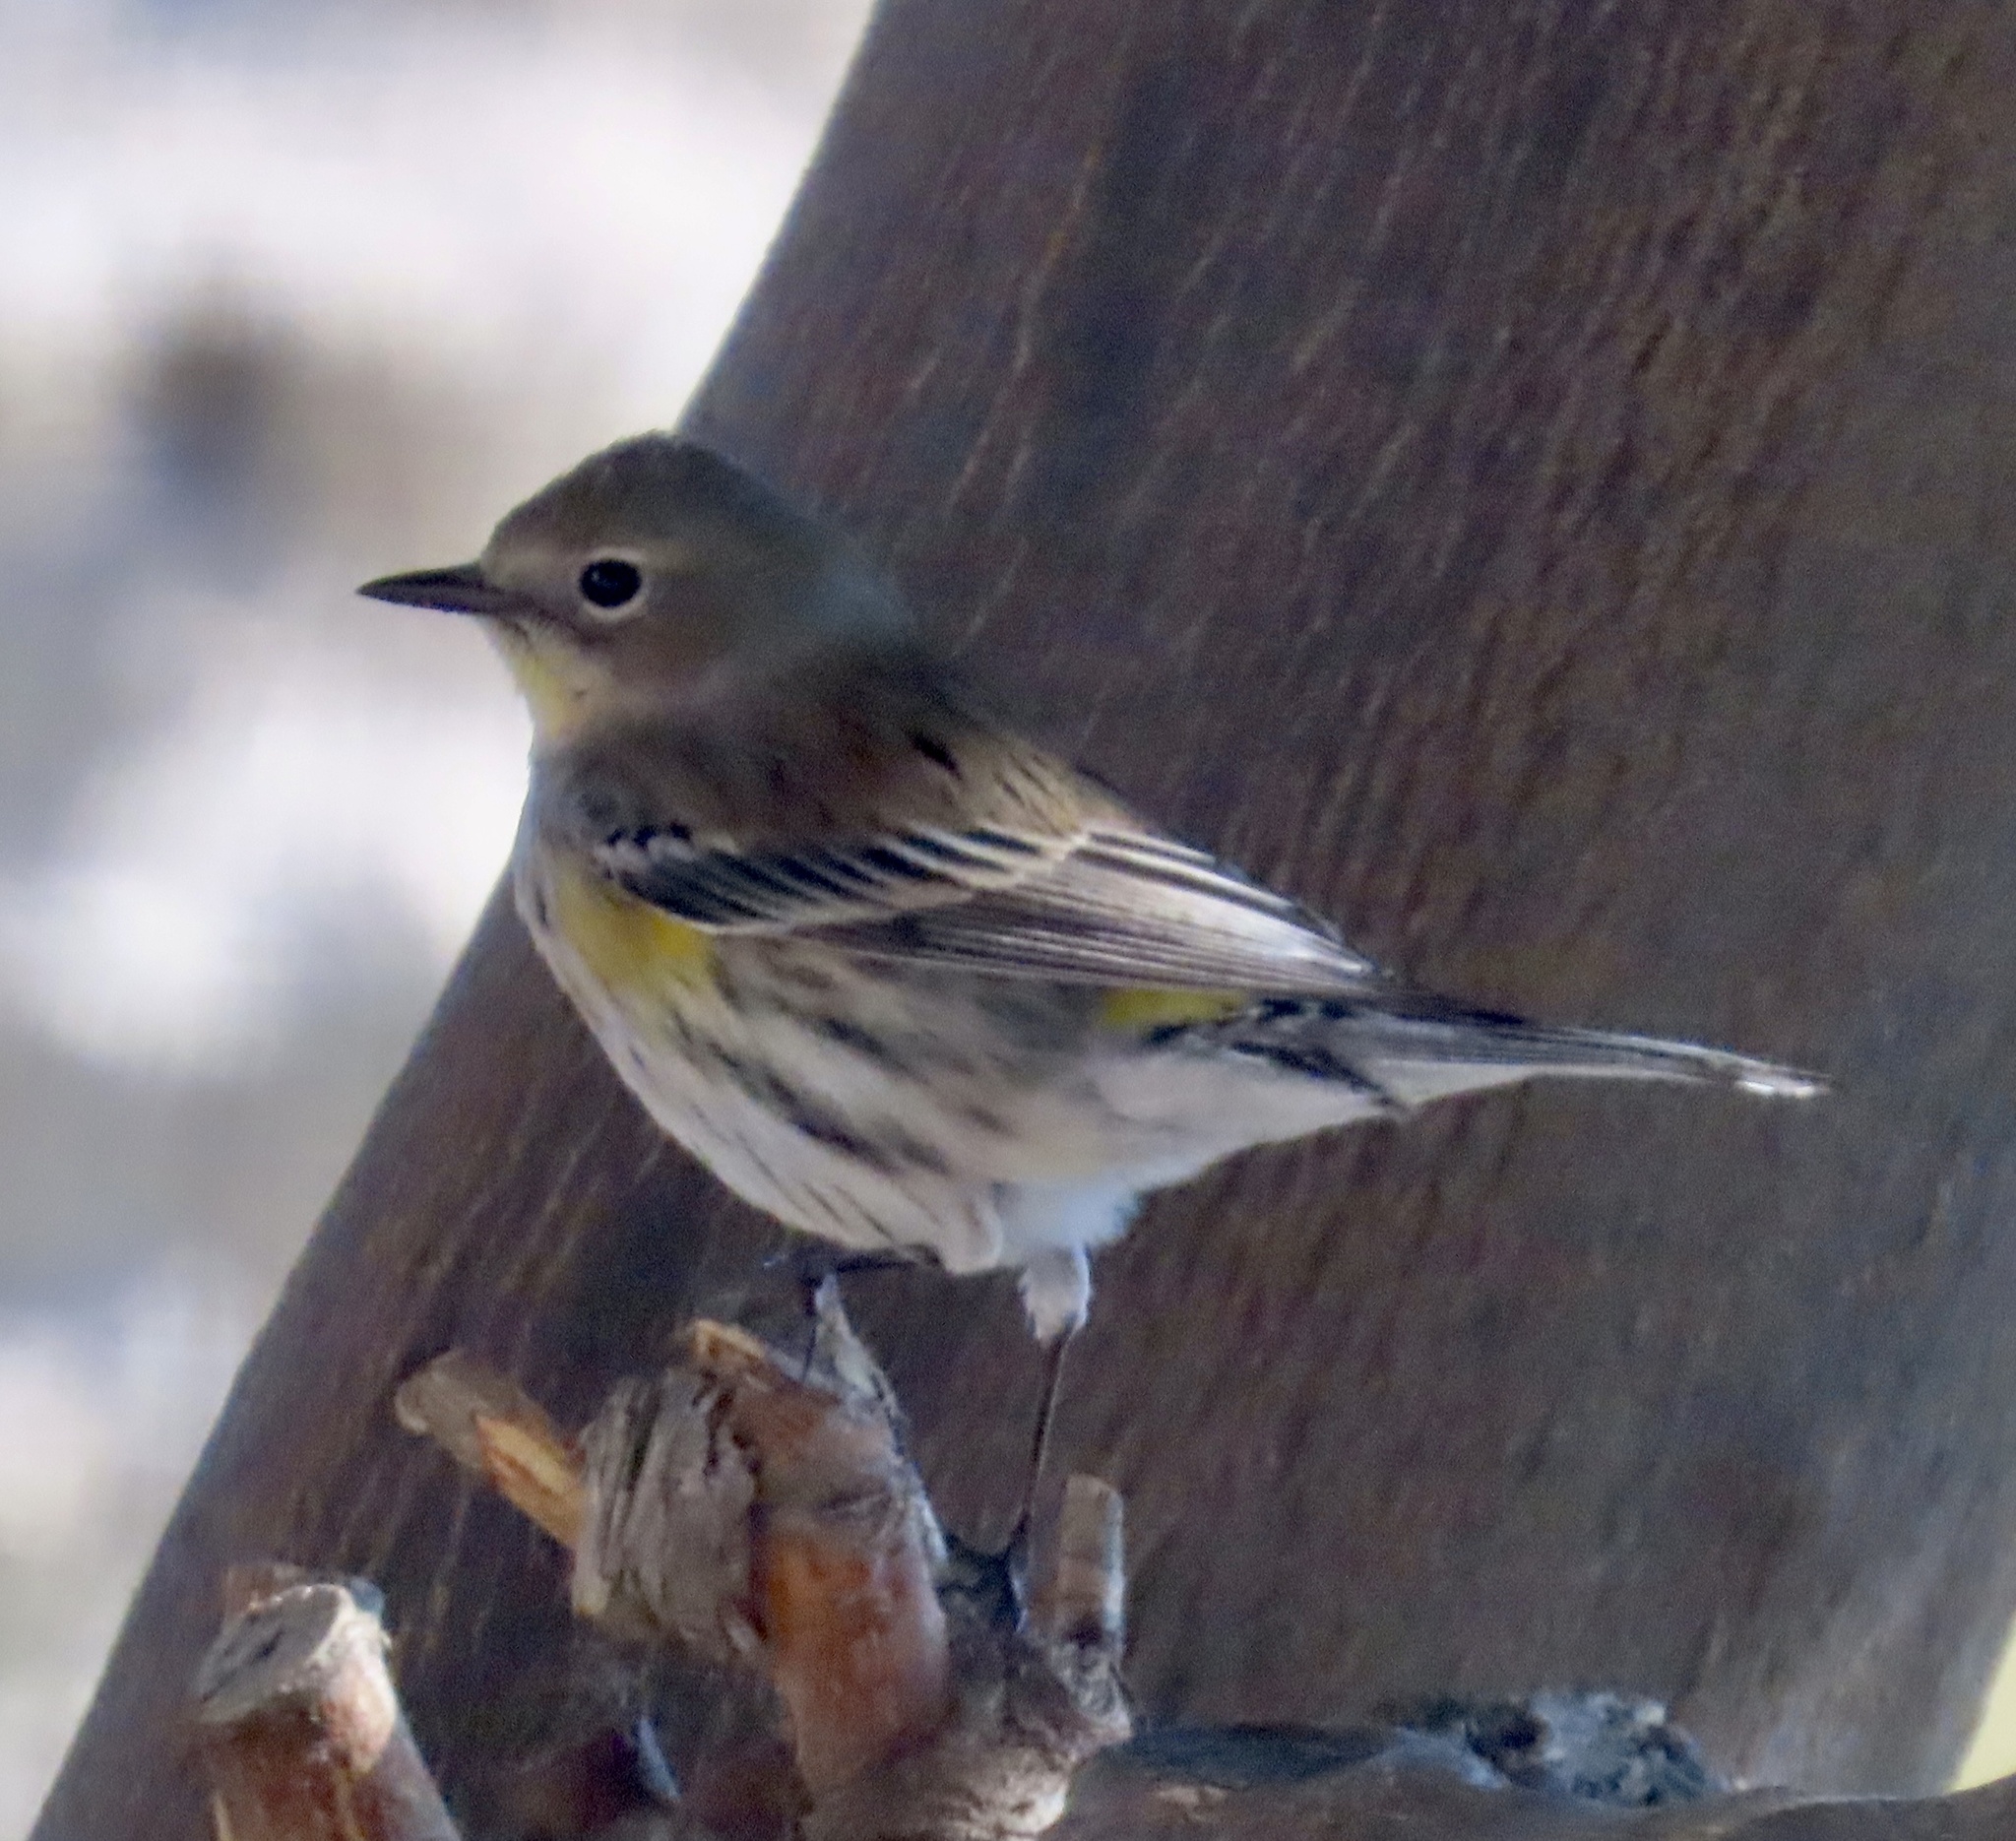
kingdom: Animalia
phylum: Chordata
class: Aves
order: Passeriformes
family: Parulidae
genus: Setophaga
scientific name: Setophaga coronata
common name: Myrtle warbler
